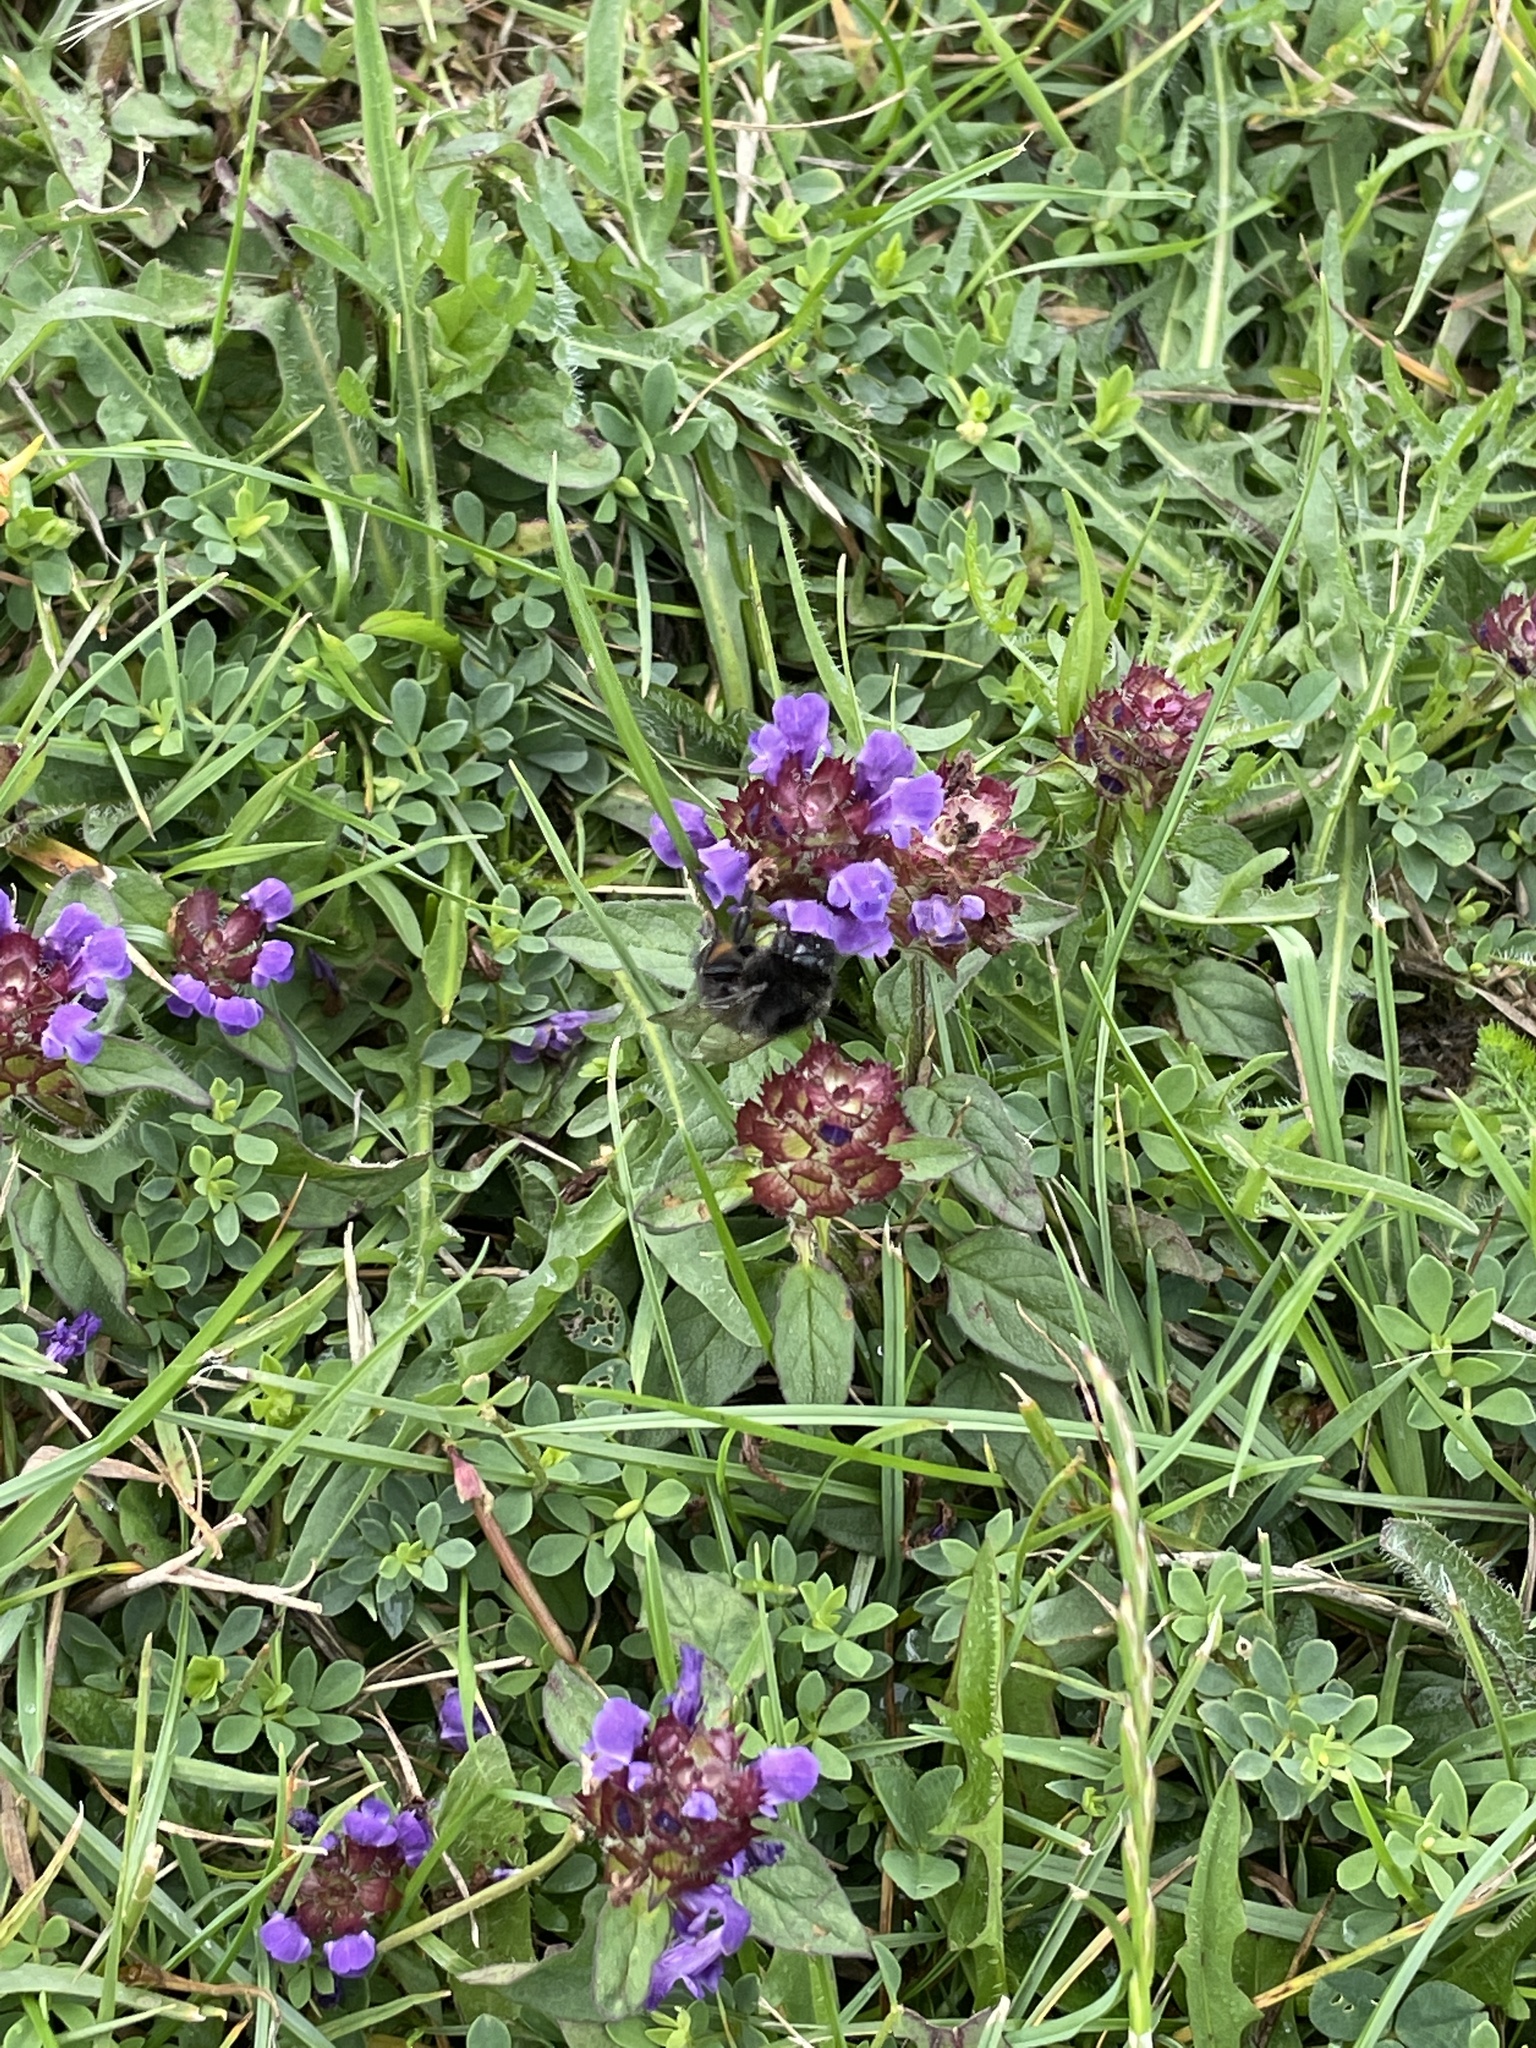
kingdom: Plantae
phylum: Tracheophyta
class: Magnoliopsida
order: Lamiales
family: Lamiaceae
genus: Prunella
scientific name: Prunella vulgaris
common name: Heal-all
